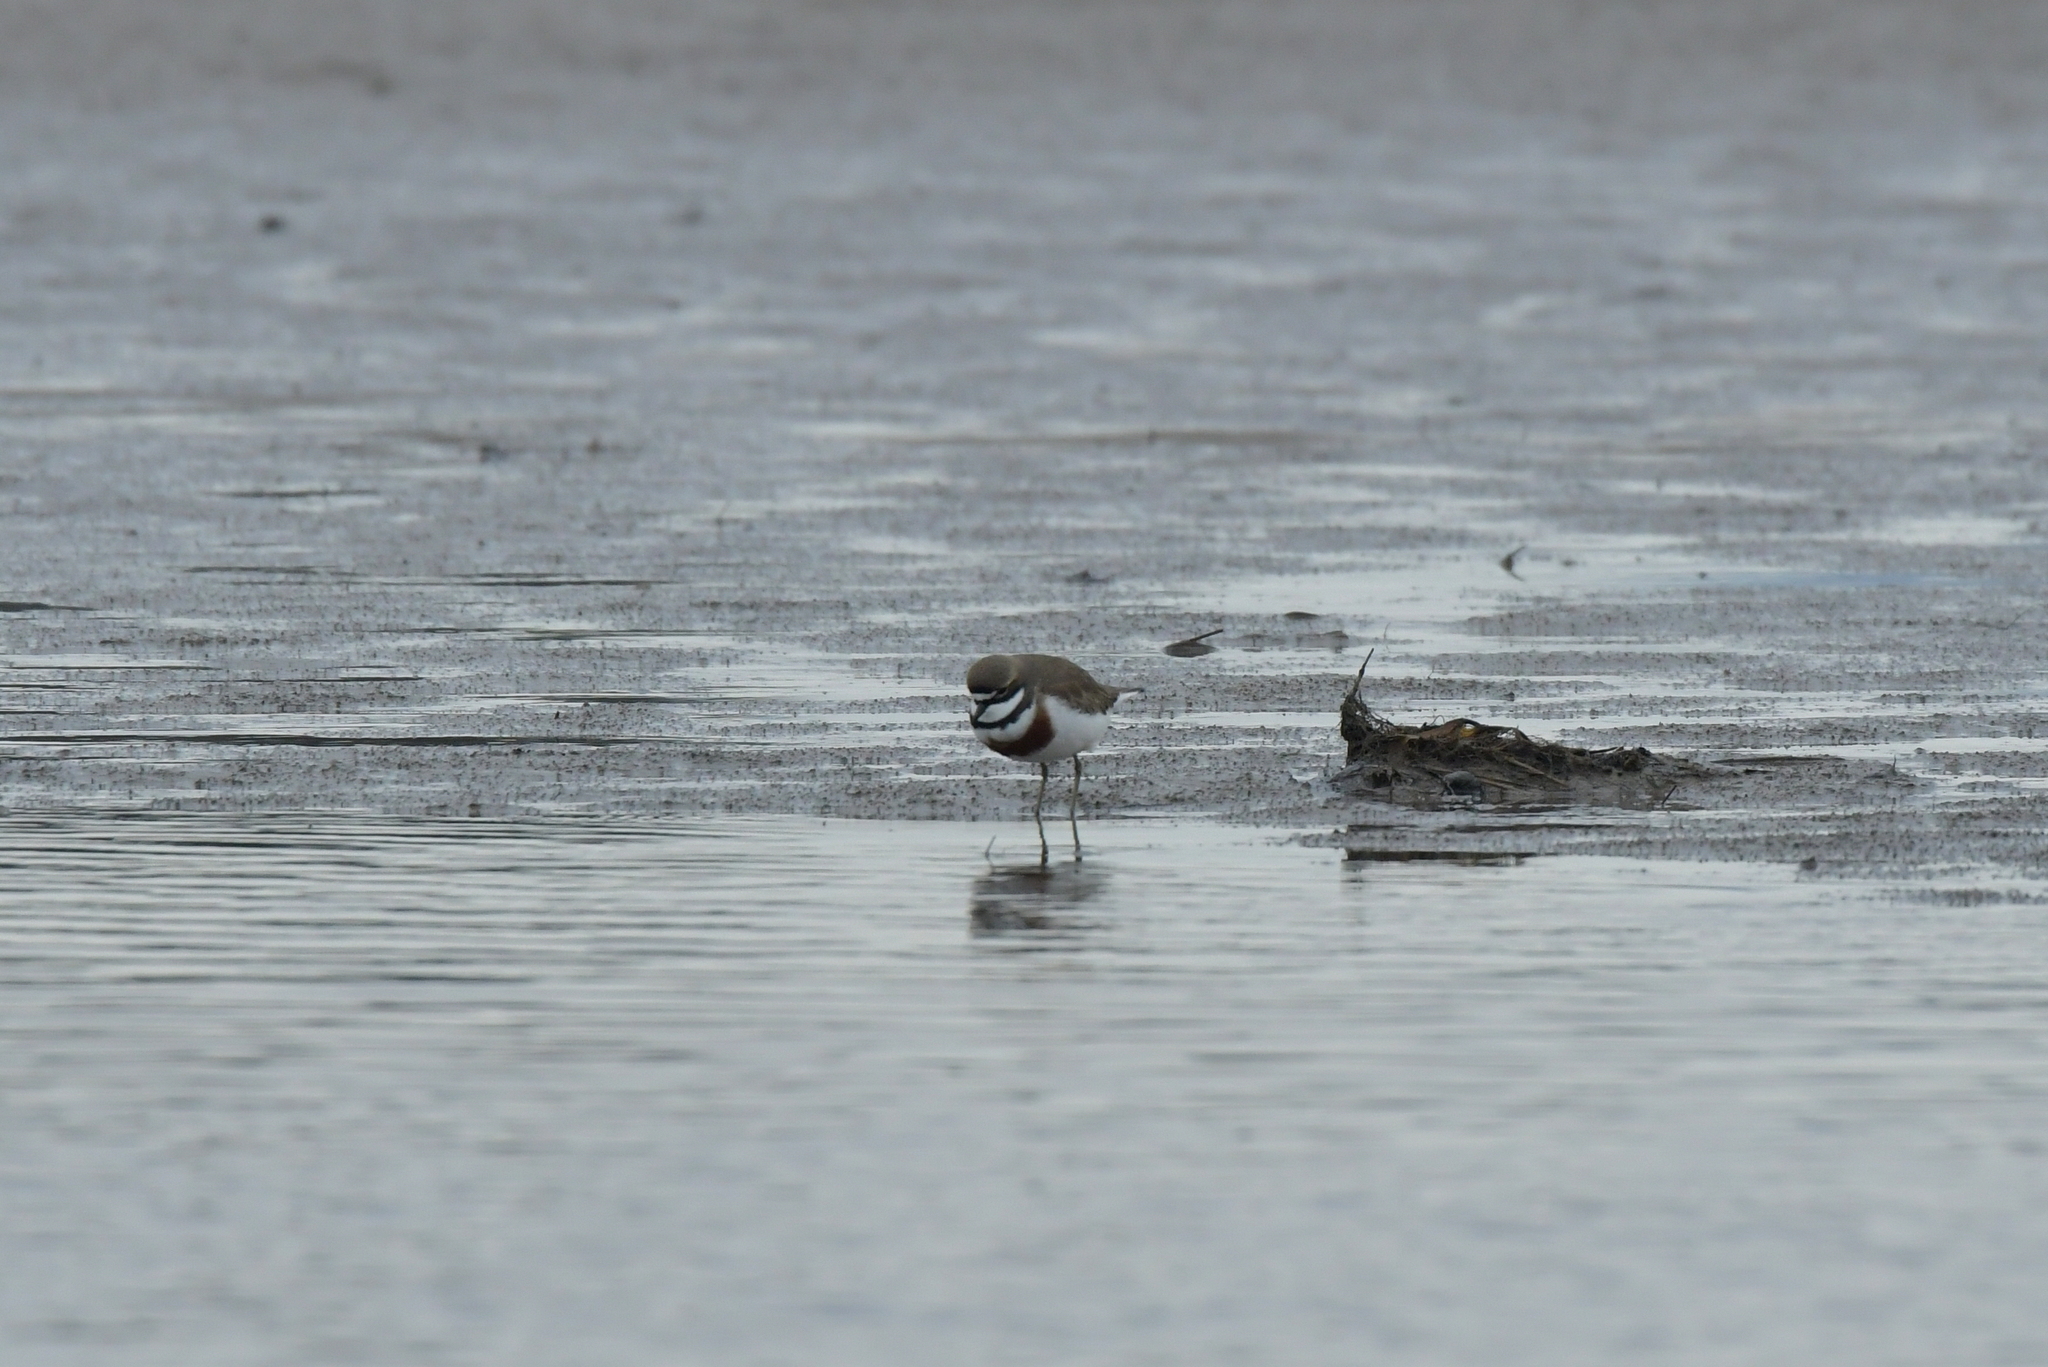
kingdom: Animalia
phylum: Chordata
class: Aves
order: Charadriiformes
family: Charadriidae
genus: Anarhynchus
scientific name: Anarhynchus
